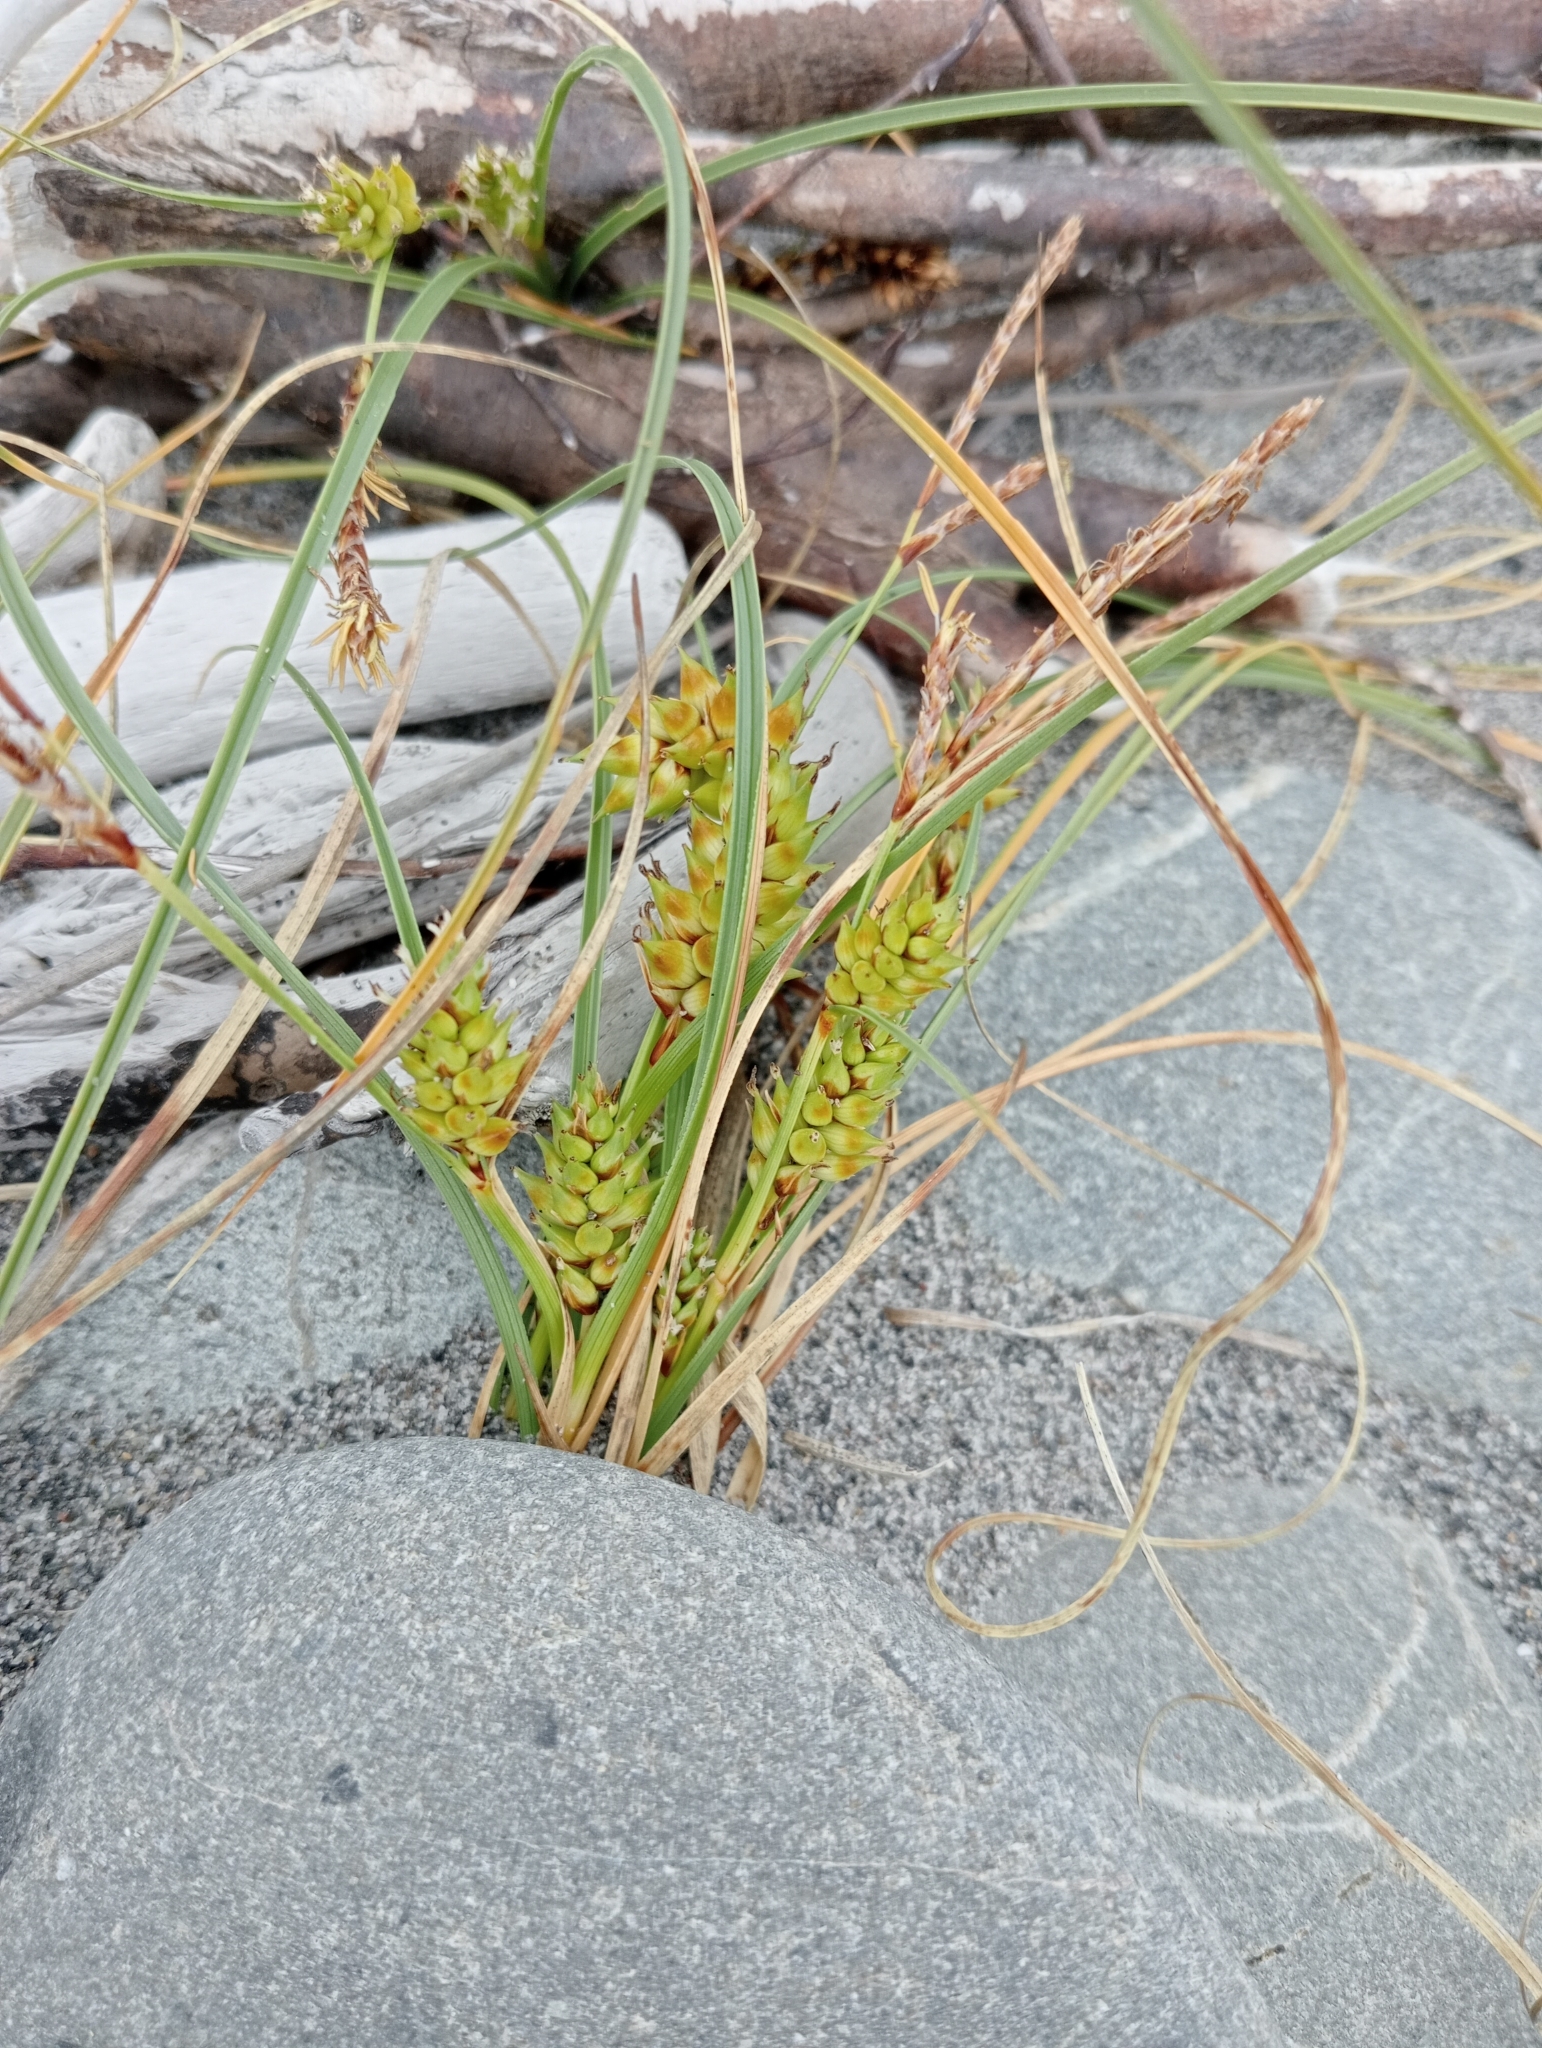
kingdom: Plantae
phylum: Tracheophyta
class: Liliopsida
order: Poales
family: Cyperaceae
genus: Carex
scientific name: Carex pumila
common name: Dwarf sedge
